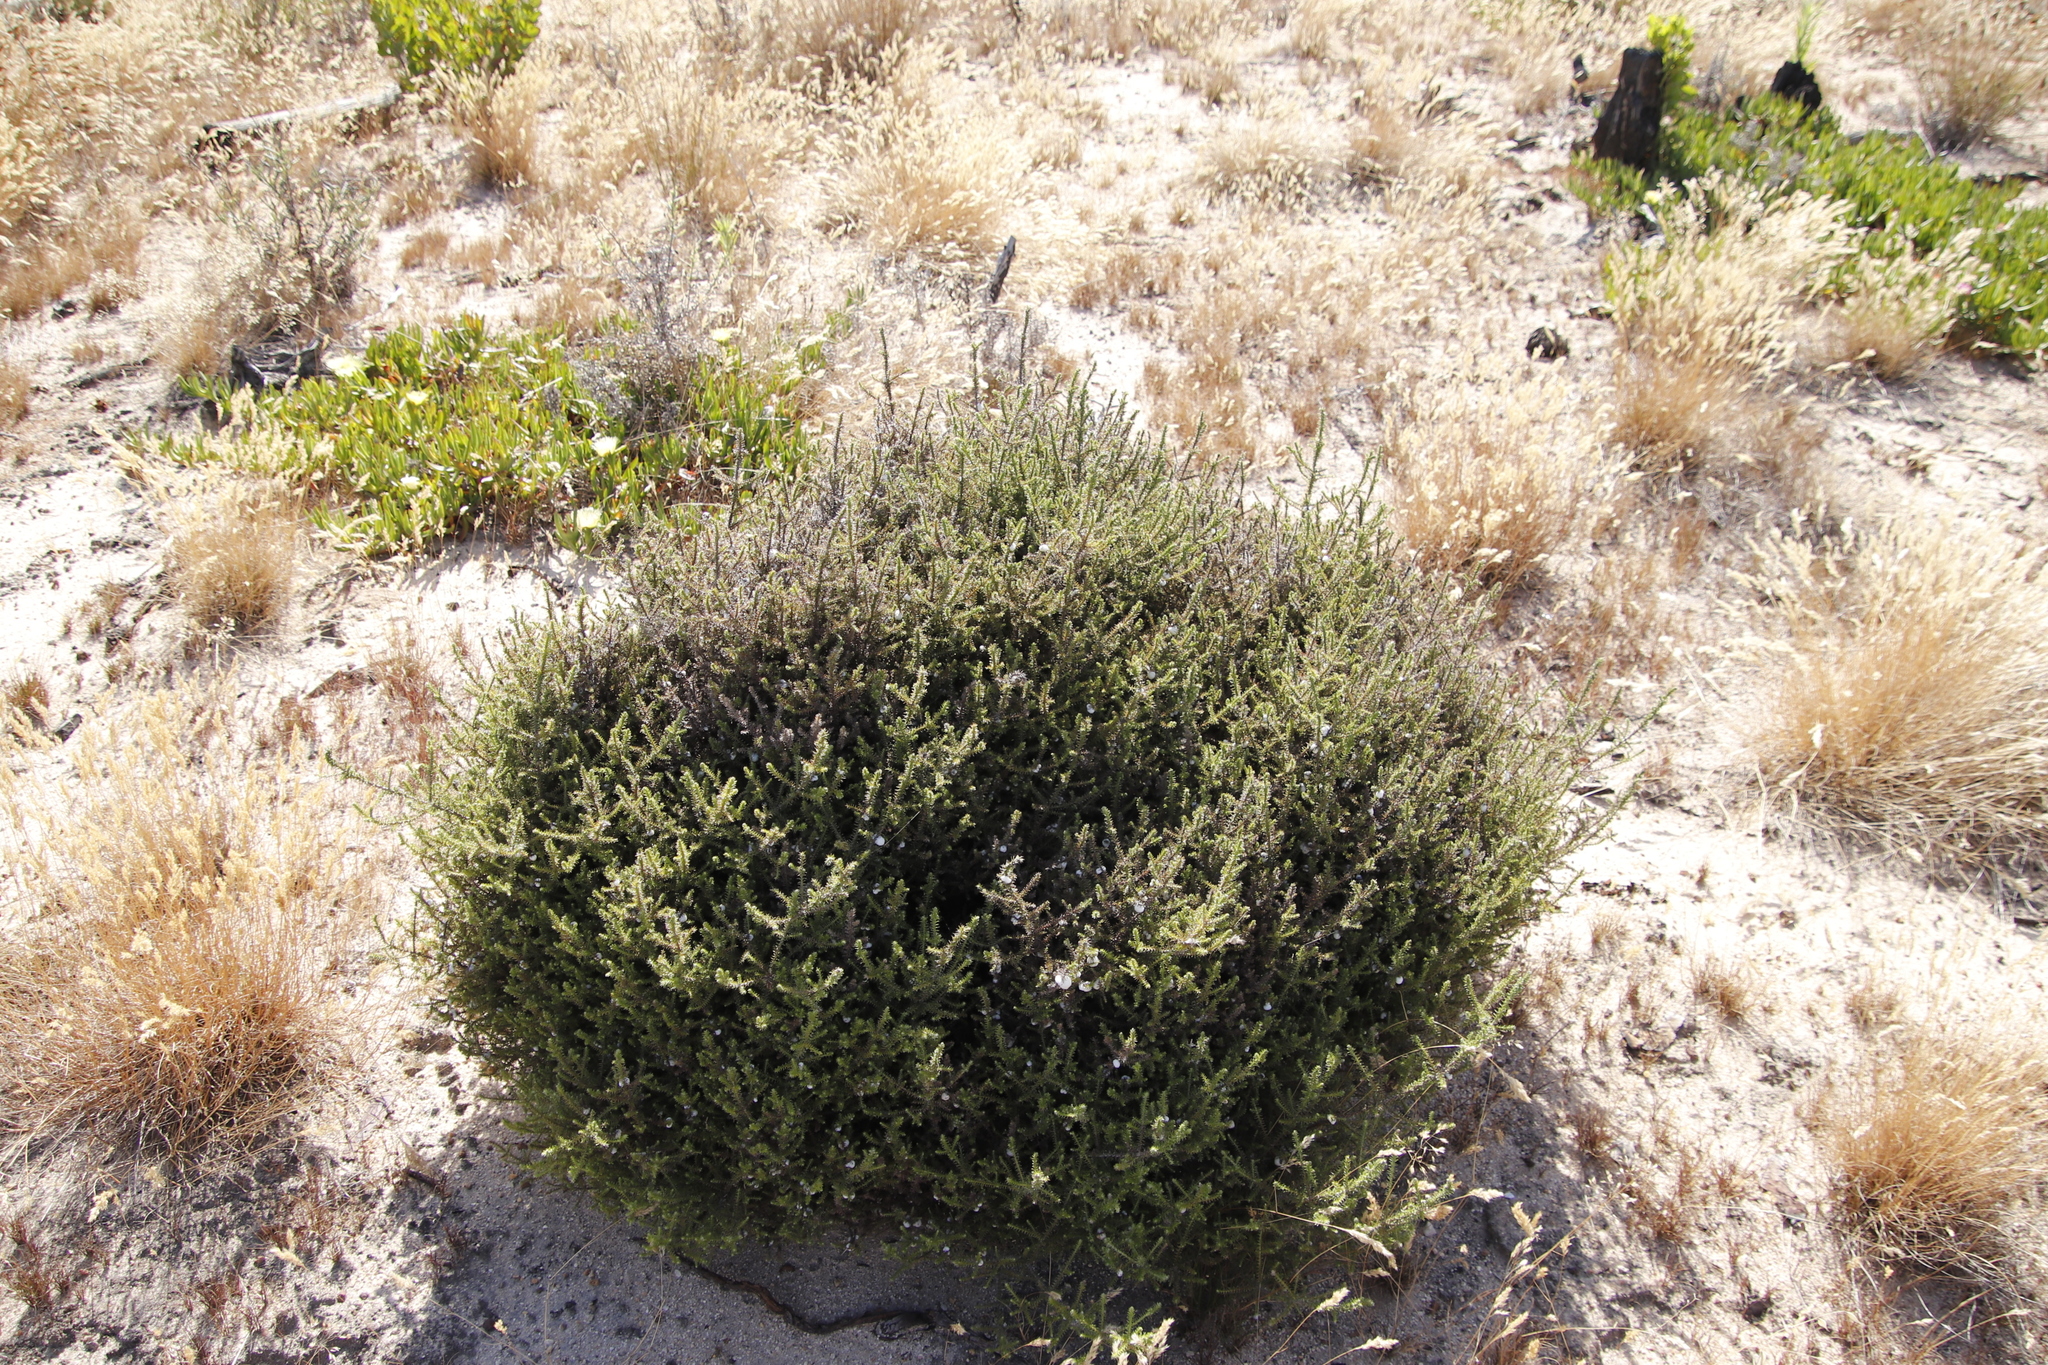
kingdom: Plantae
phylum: Tracheophyta
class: Magnoliopsida
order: Asterales
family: Asteraceae
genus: Seriphium
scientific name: Seriphium cinereum
